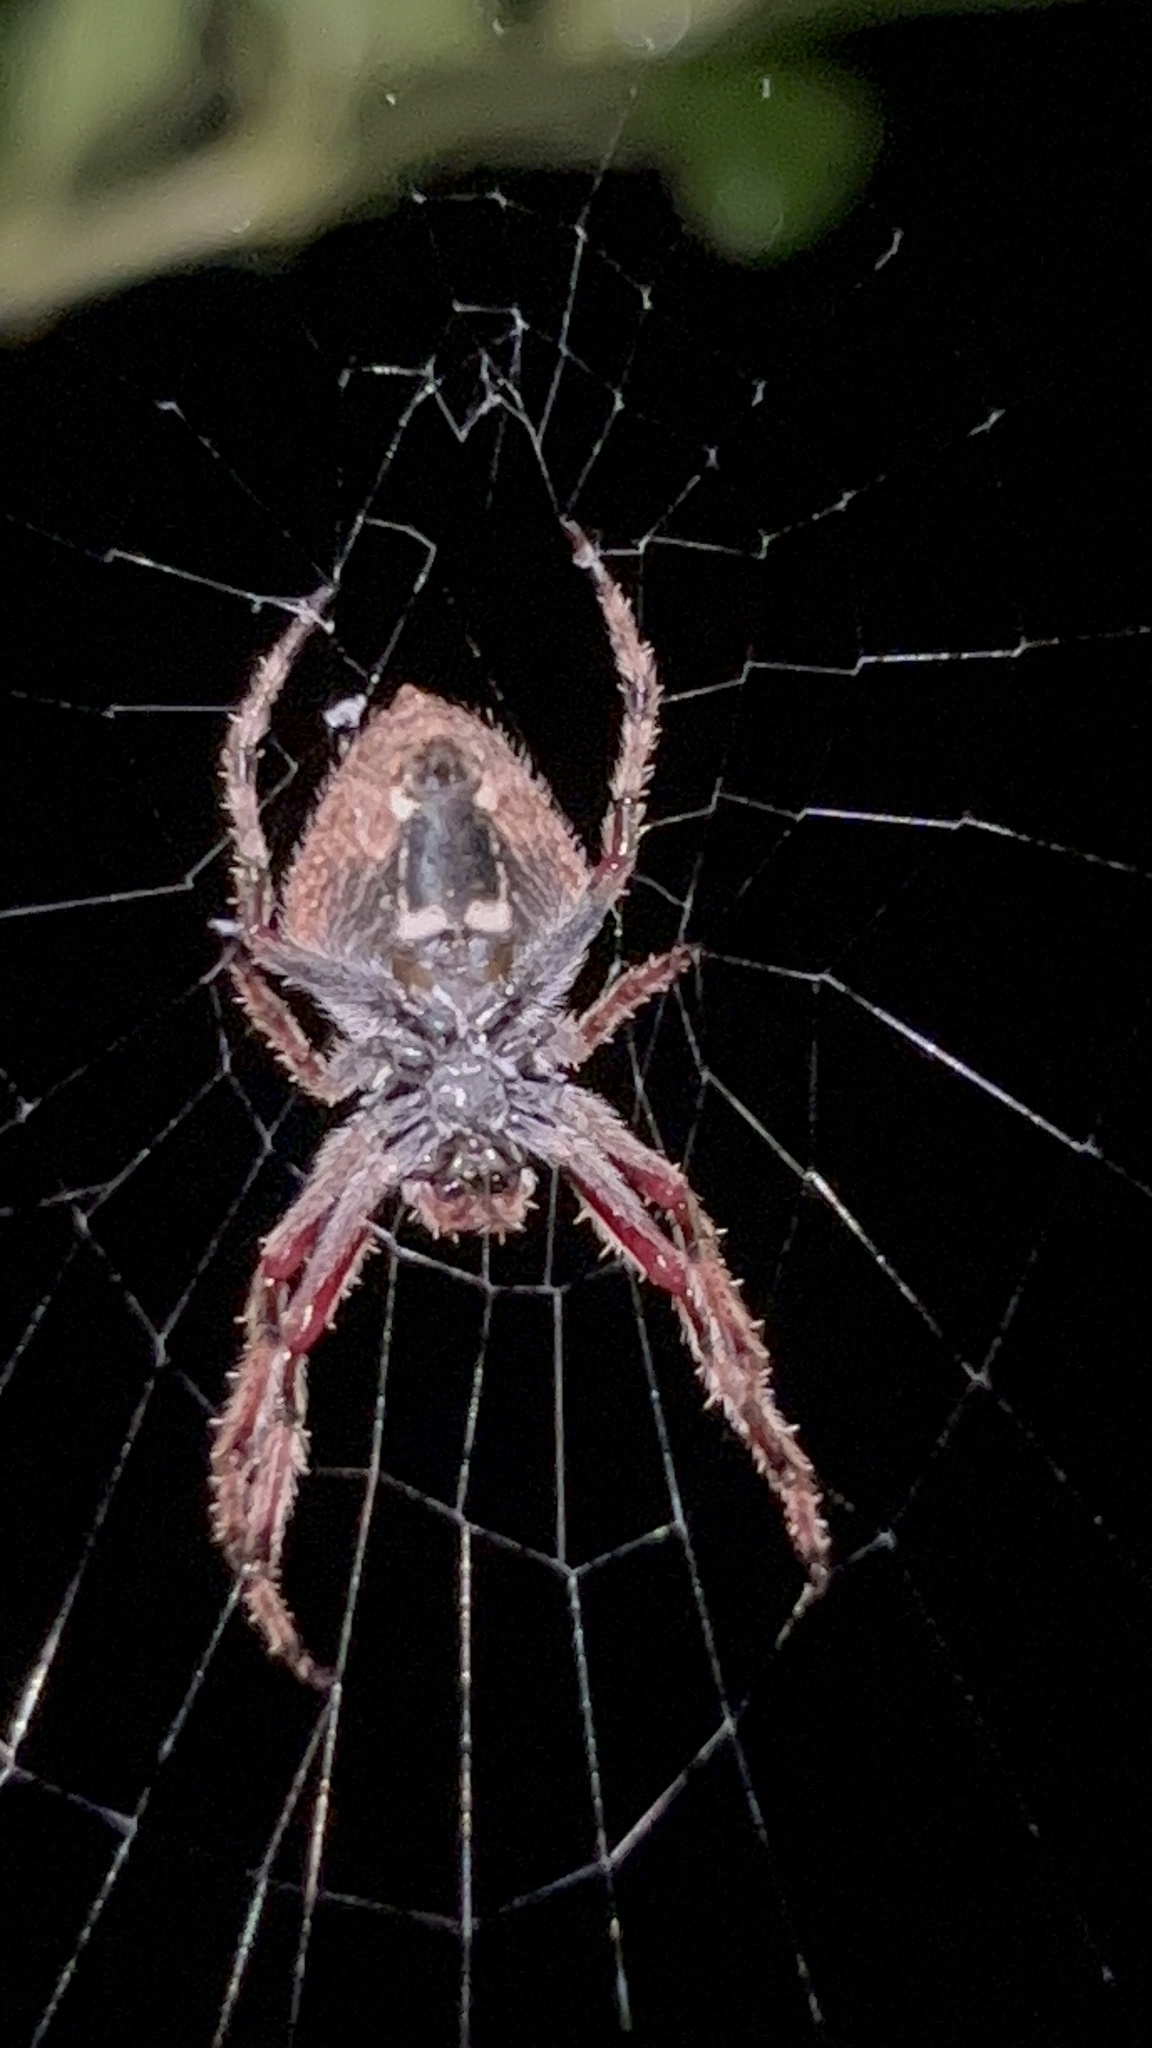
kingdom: Animalia
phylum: Arthropoda
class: Arachnida
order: Araneae
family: Araneidae
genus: Eriophora
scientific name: Eriophora pustulosa
